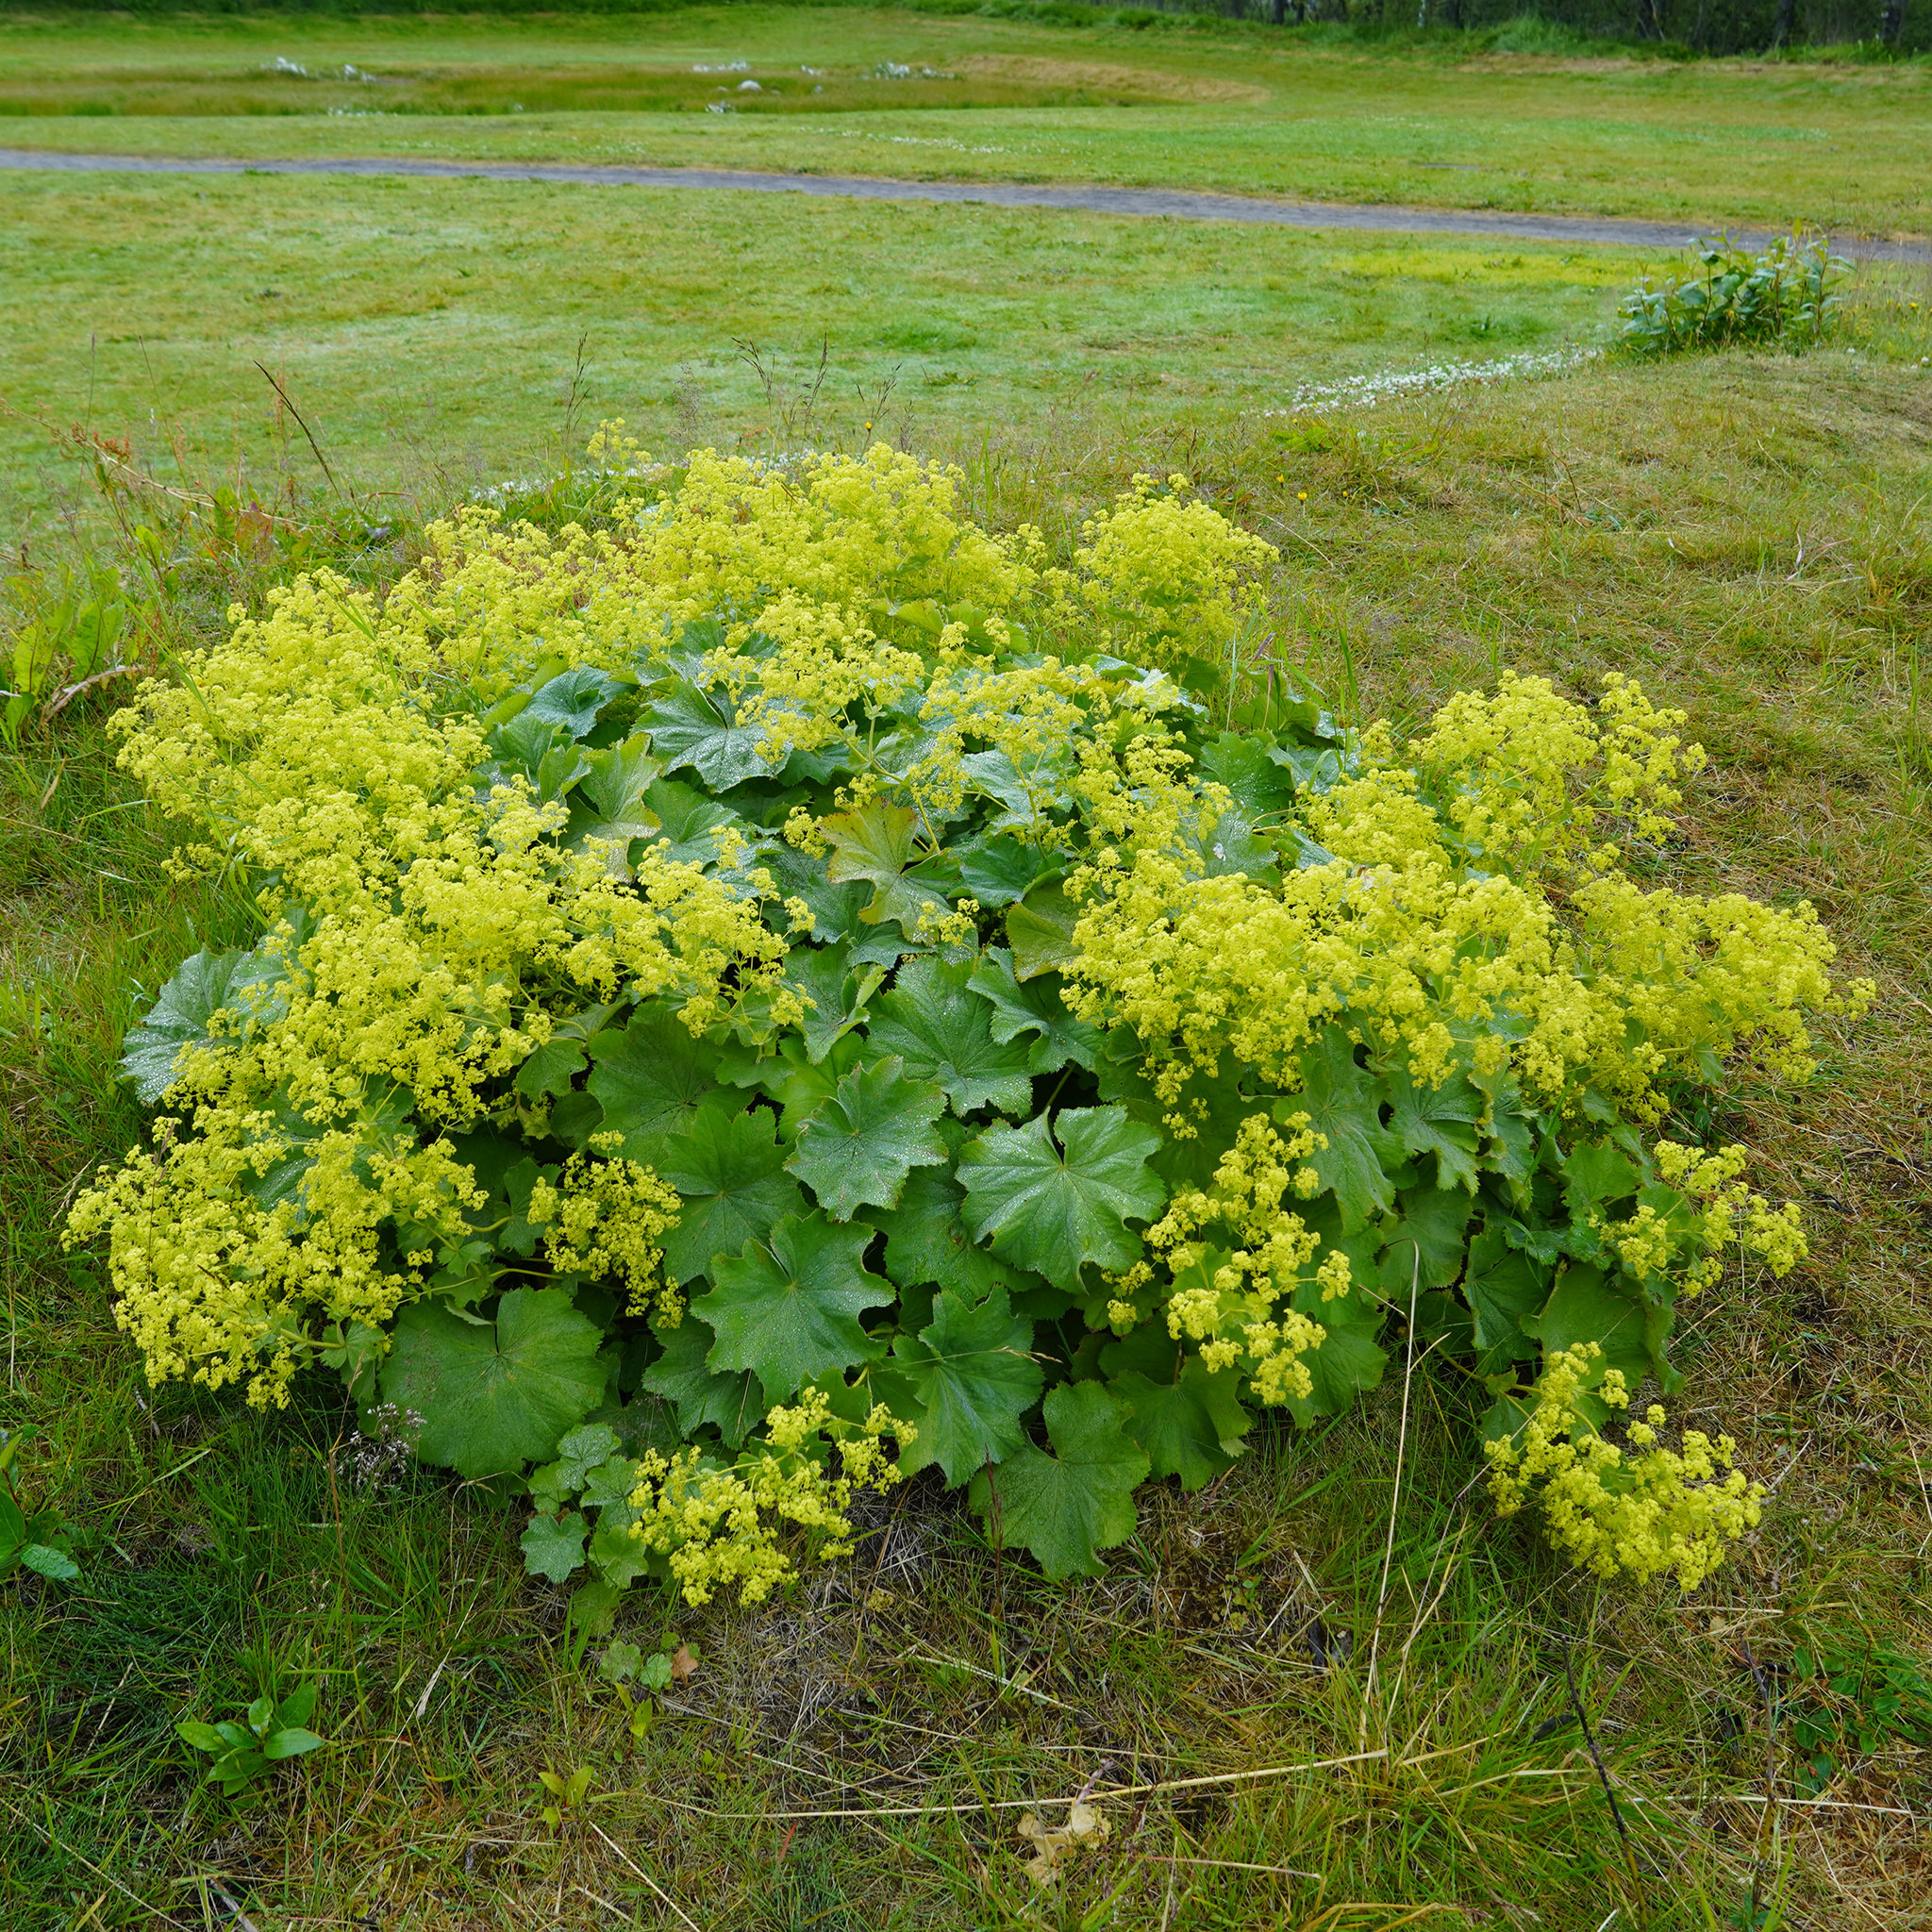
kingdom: Plantae
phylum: Tracheophyta
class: Magnoliopsida
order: Rosales
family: Rosaceae
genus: Alchemilla
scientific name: Alchemilla mollis
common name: Lady's-mantle
